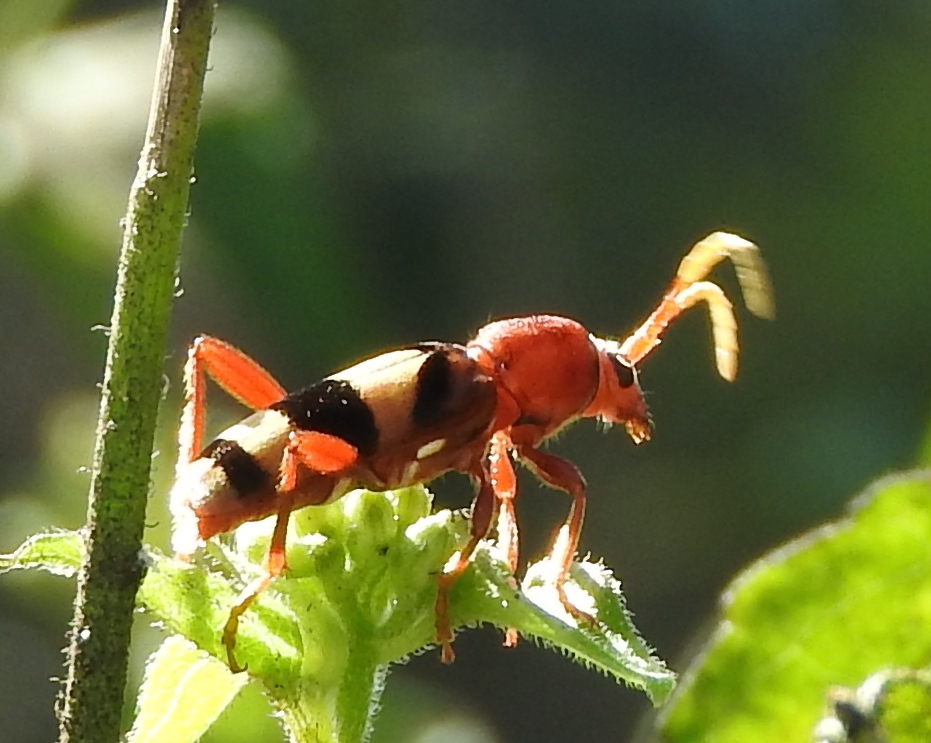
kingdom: Animalia
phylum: Arthropoda
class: Insecta
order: Coleoptera
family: Cerambycidae
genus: Dexithea
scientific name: Dexithea klugii
